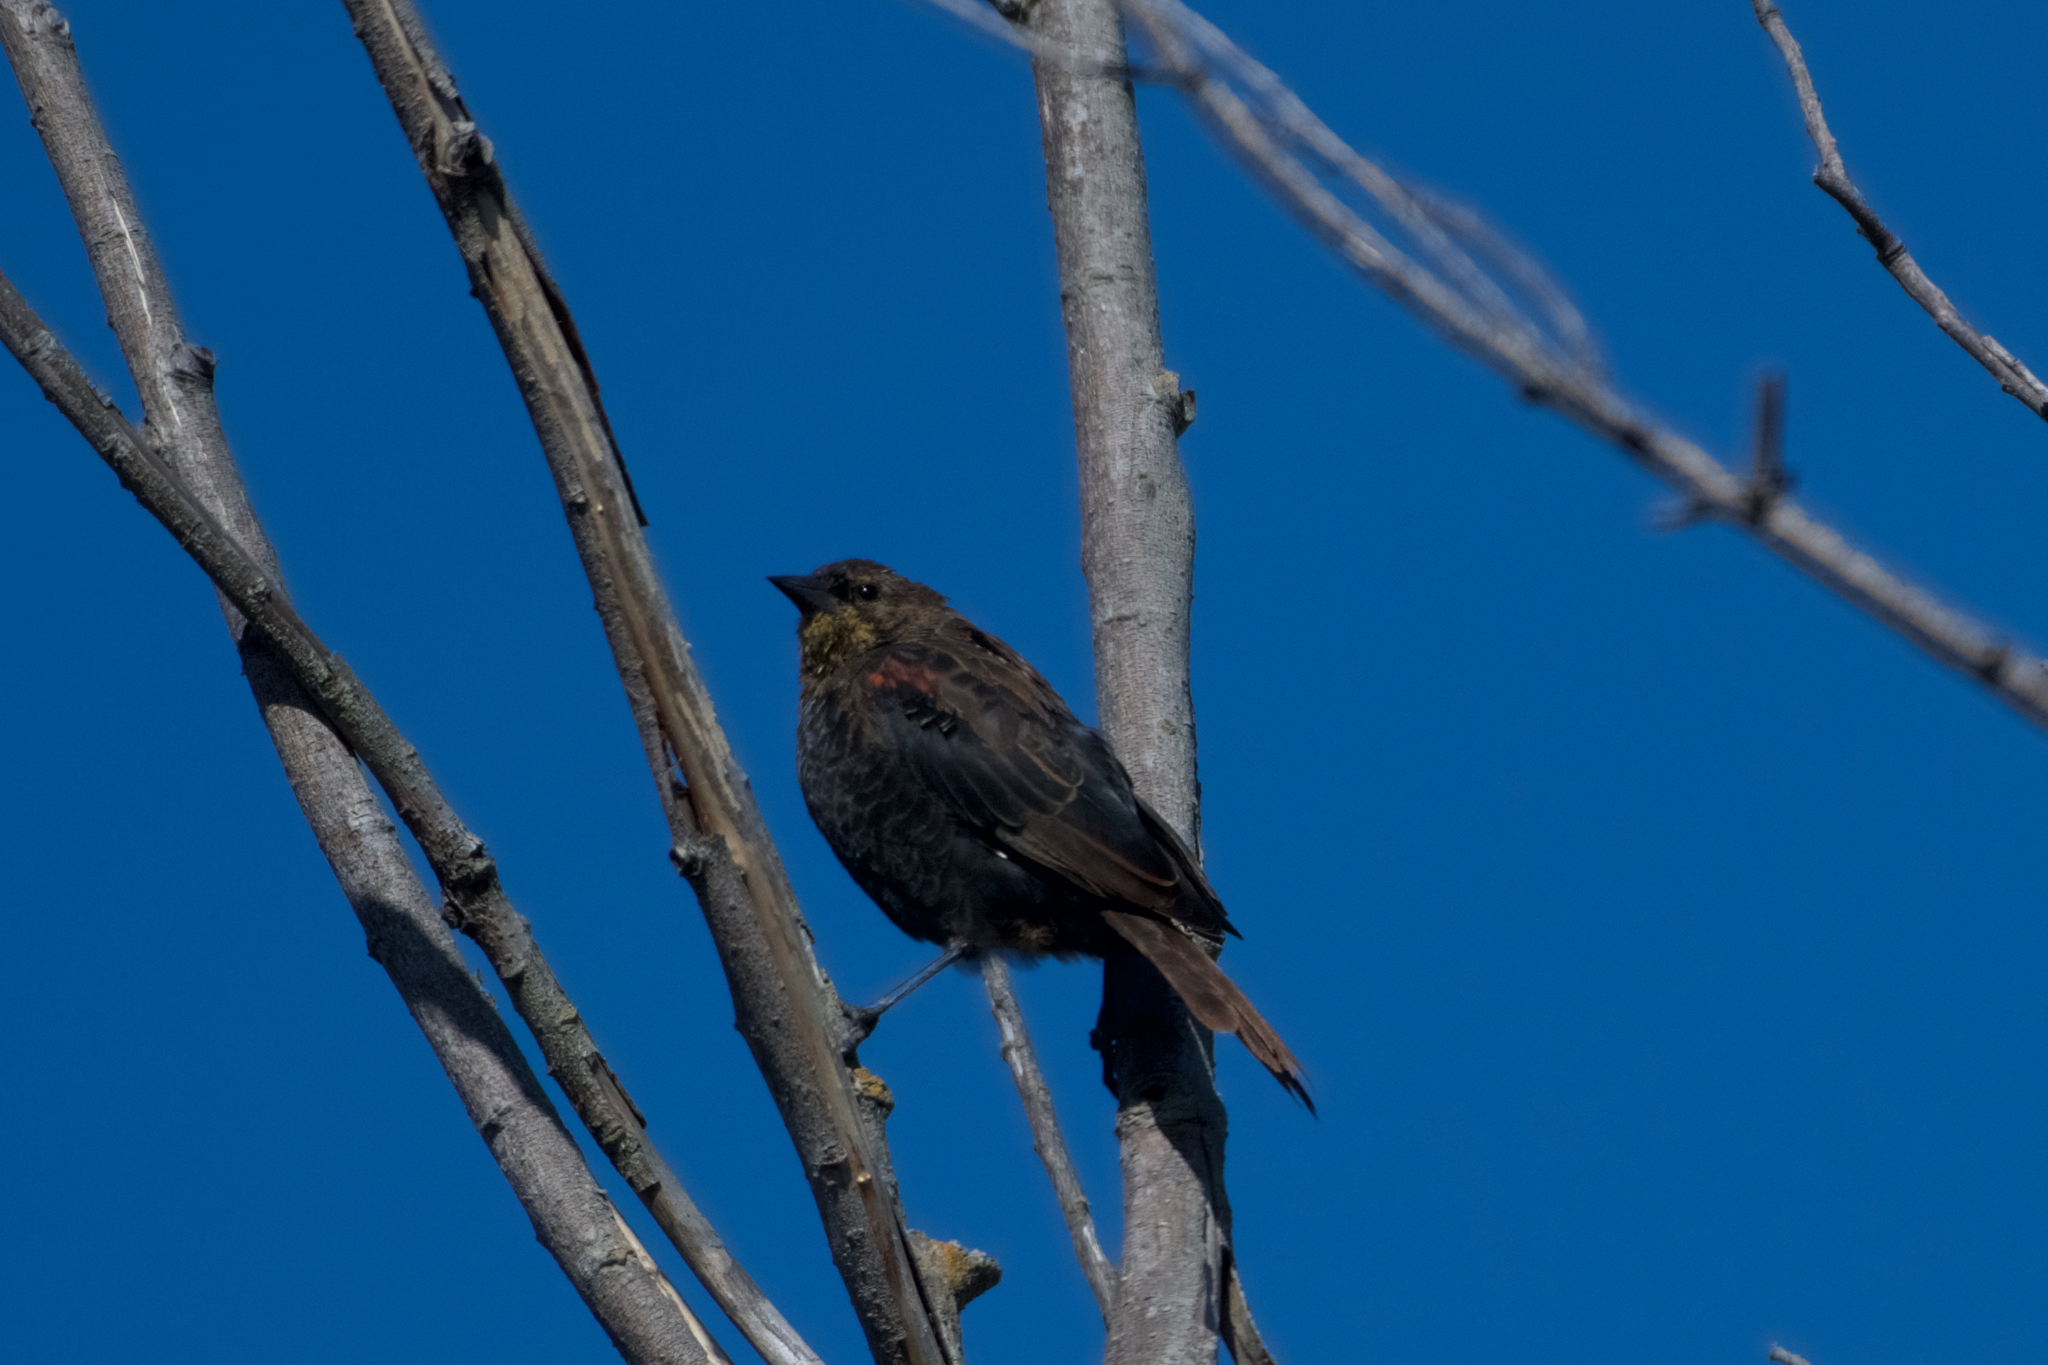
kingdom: Animalia
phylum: Chordata
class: Aves
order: Passeriformes
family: Icteridae
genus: Agelaius
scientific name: Agelaius phoeniceus
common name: Red-winged blackbird
